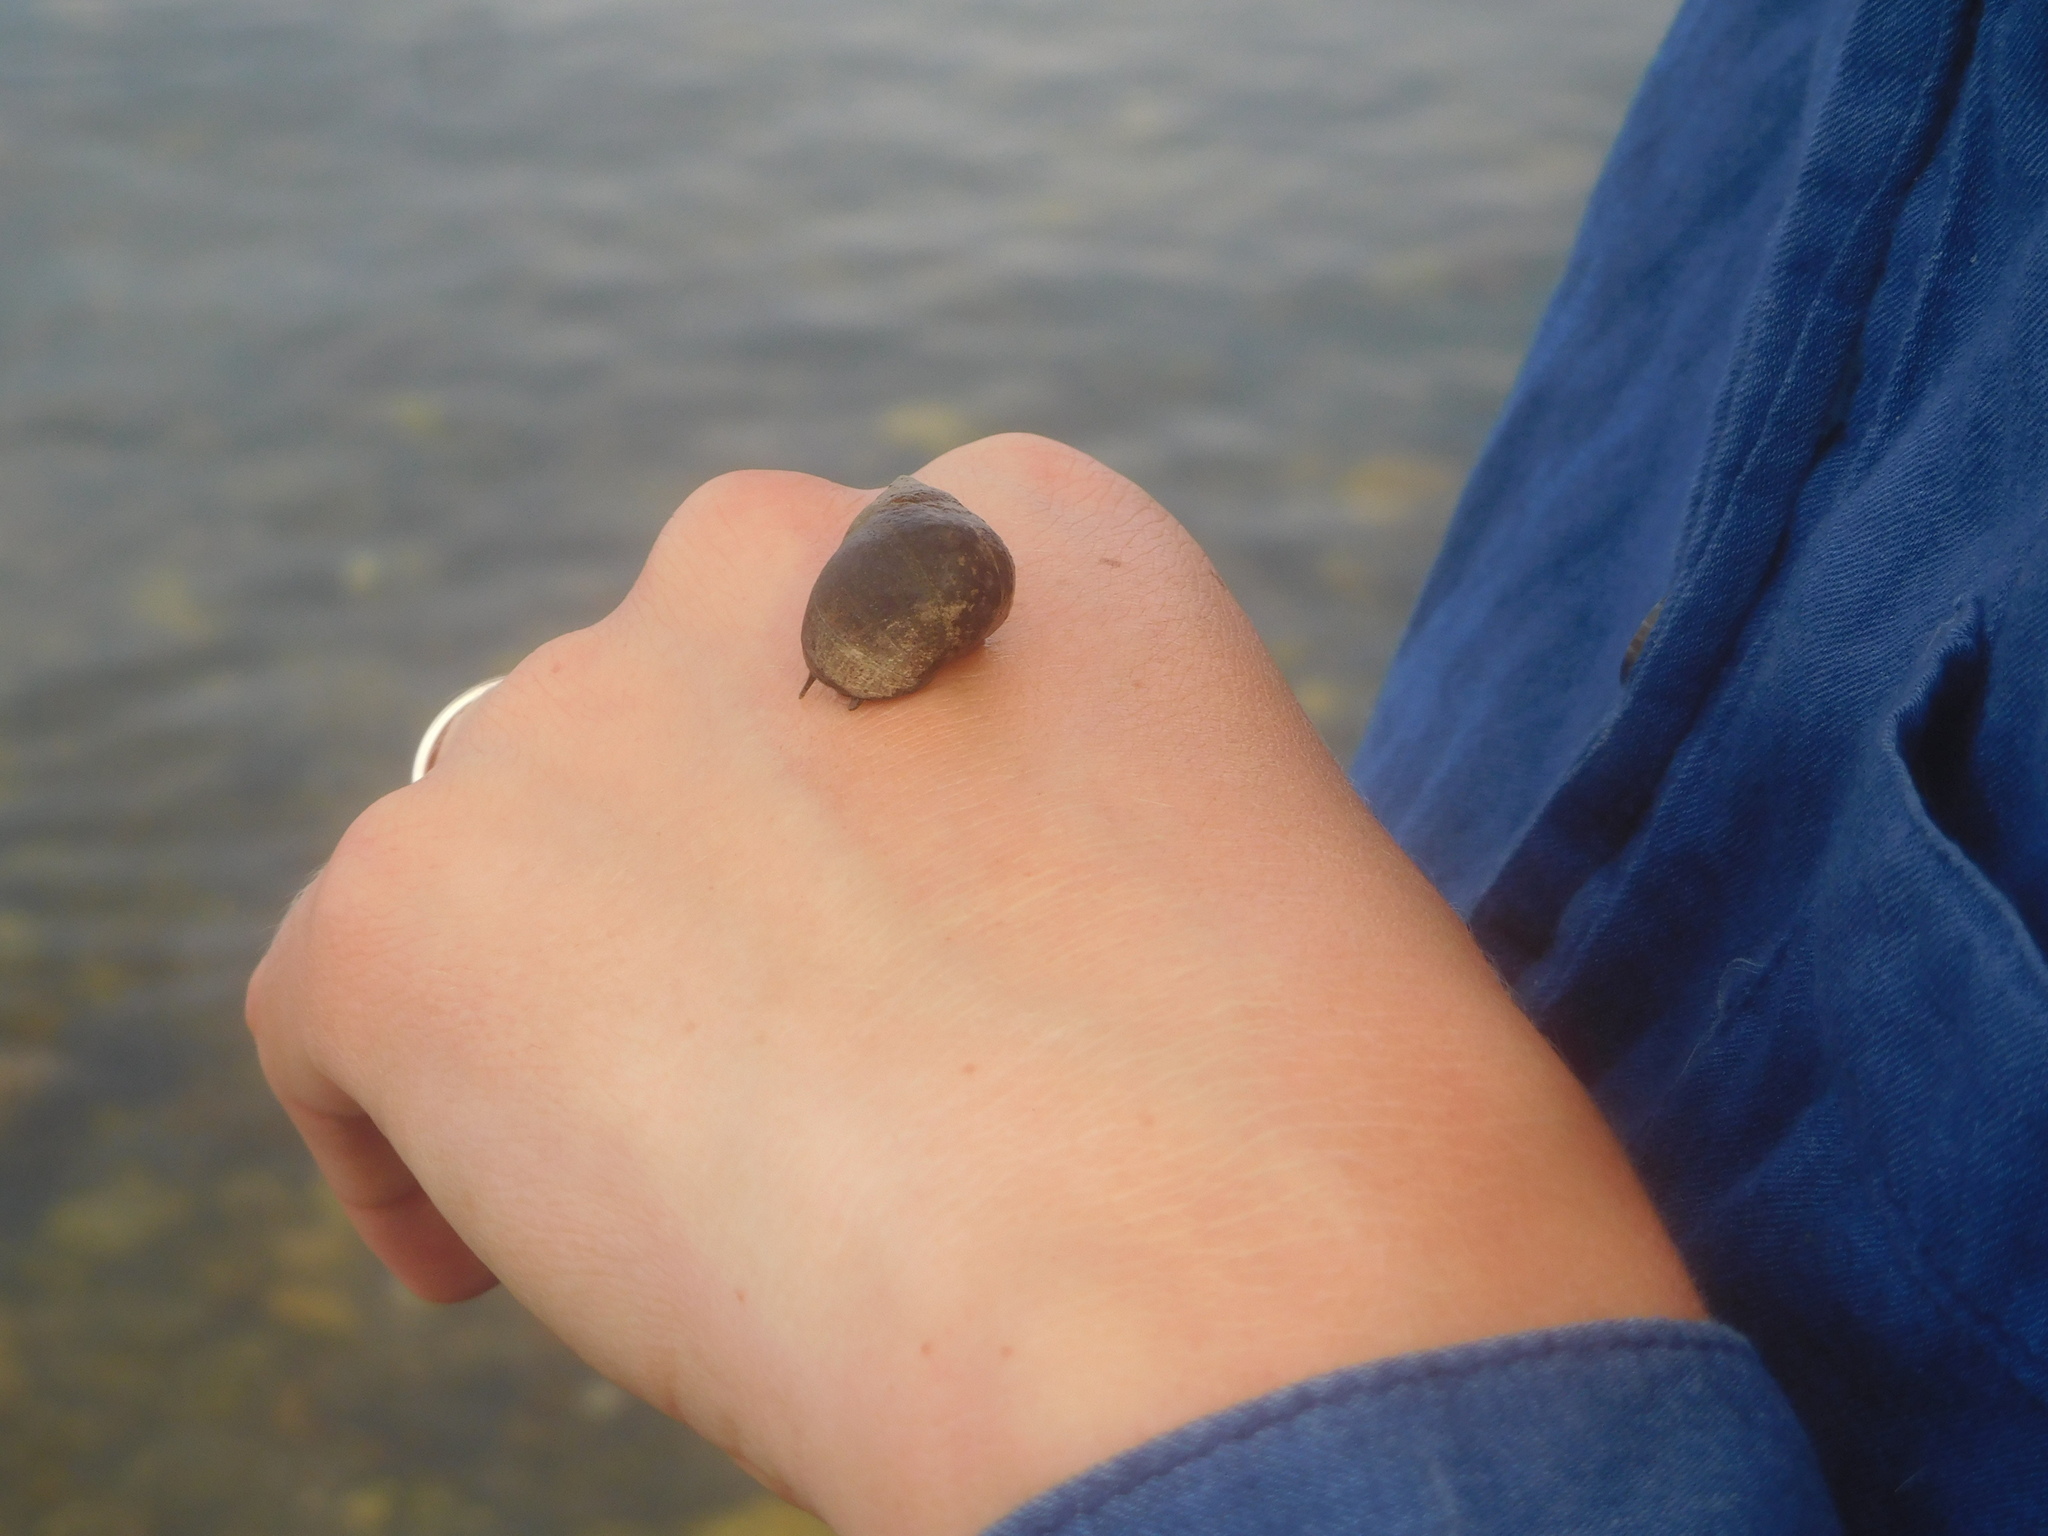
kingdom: Animalia
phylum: Mollusca
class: Gastropoda
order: Littorinimorpha
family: Littorinidae
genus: Littorina
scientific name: Littorina littorea
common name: Common periwinkle
